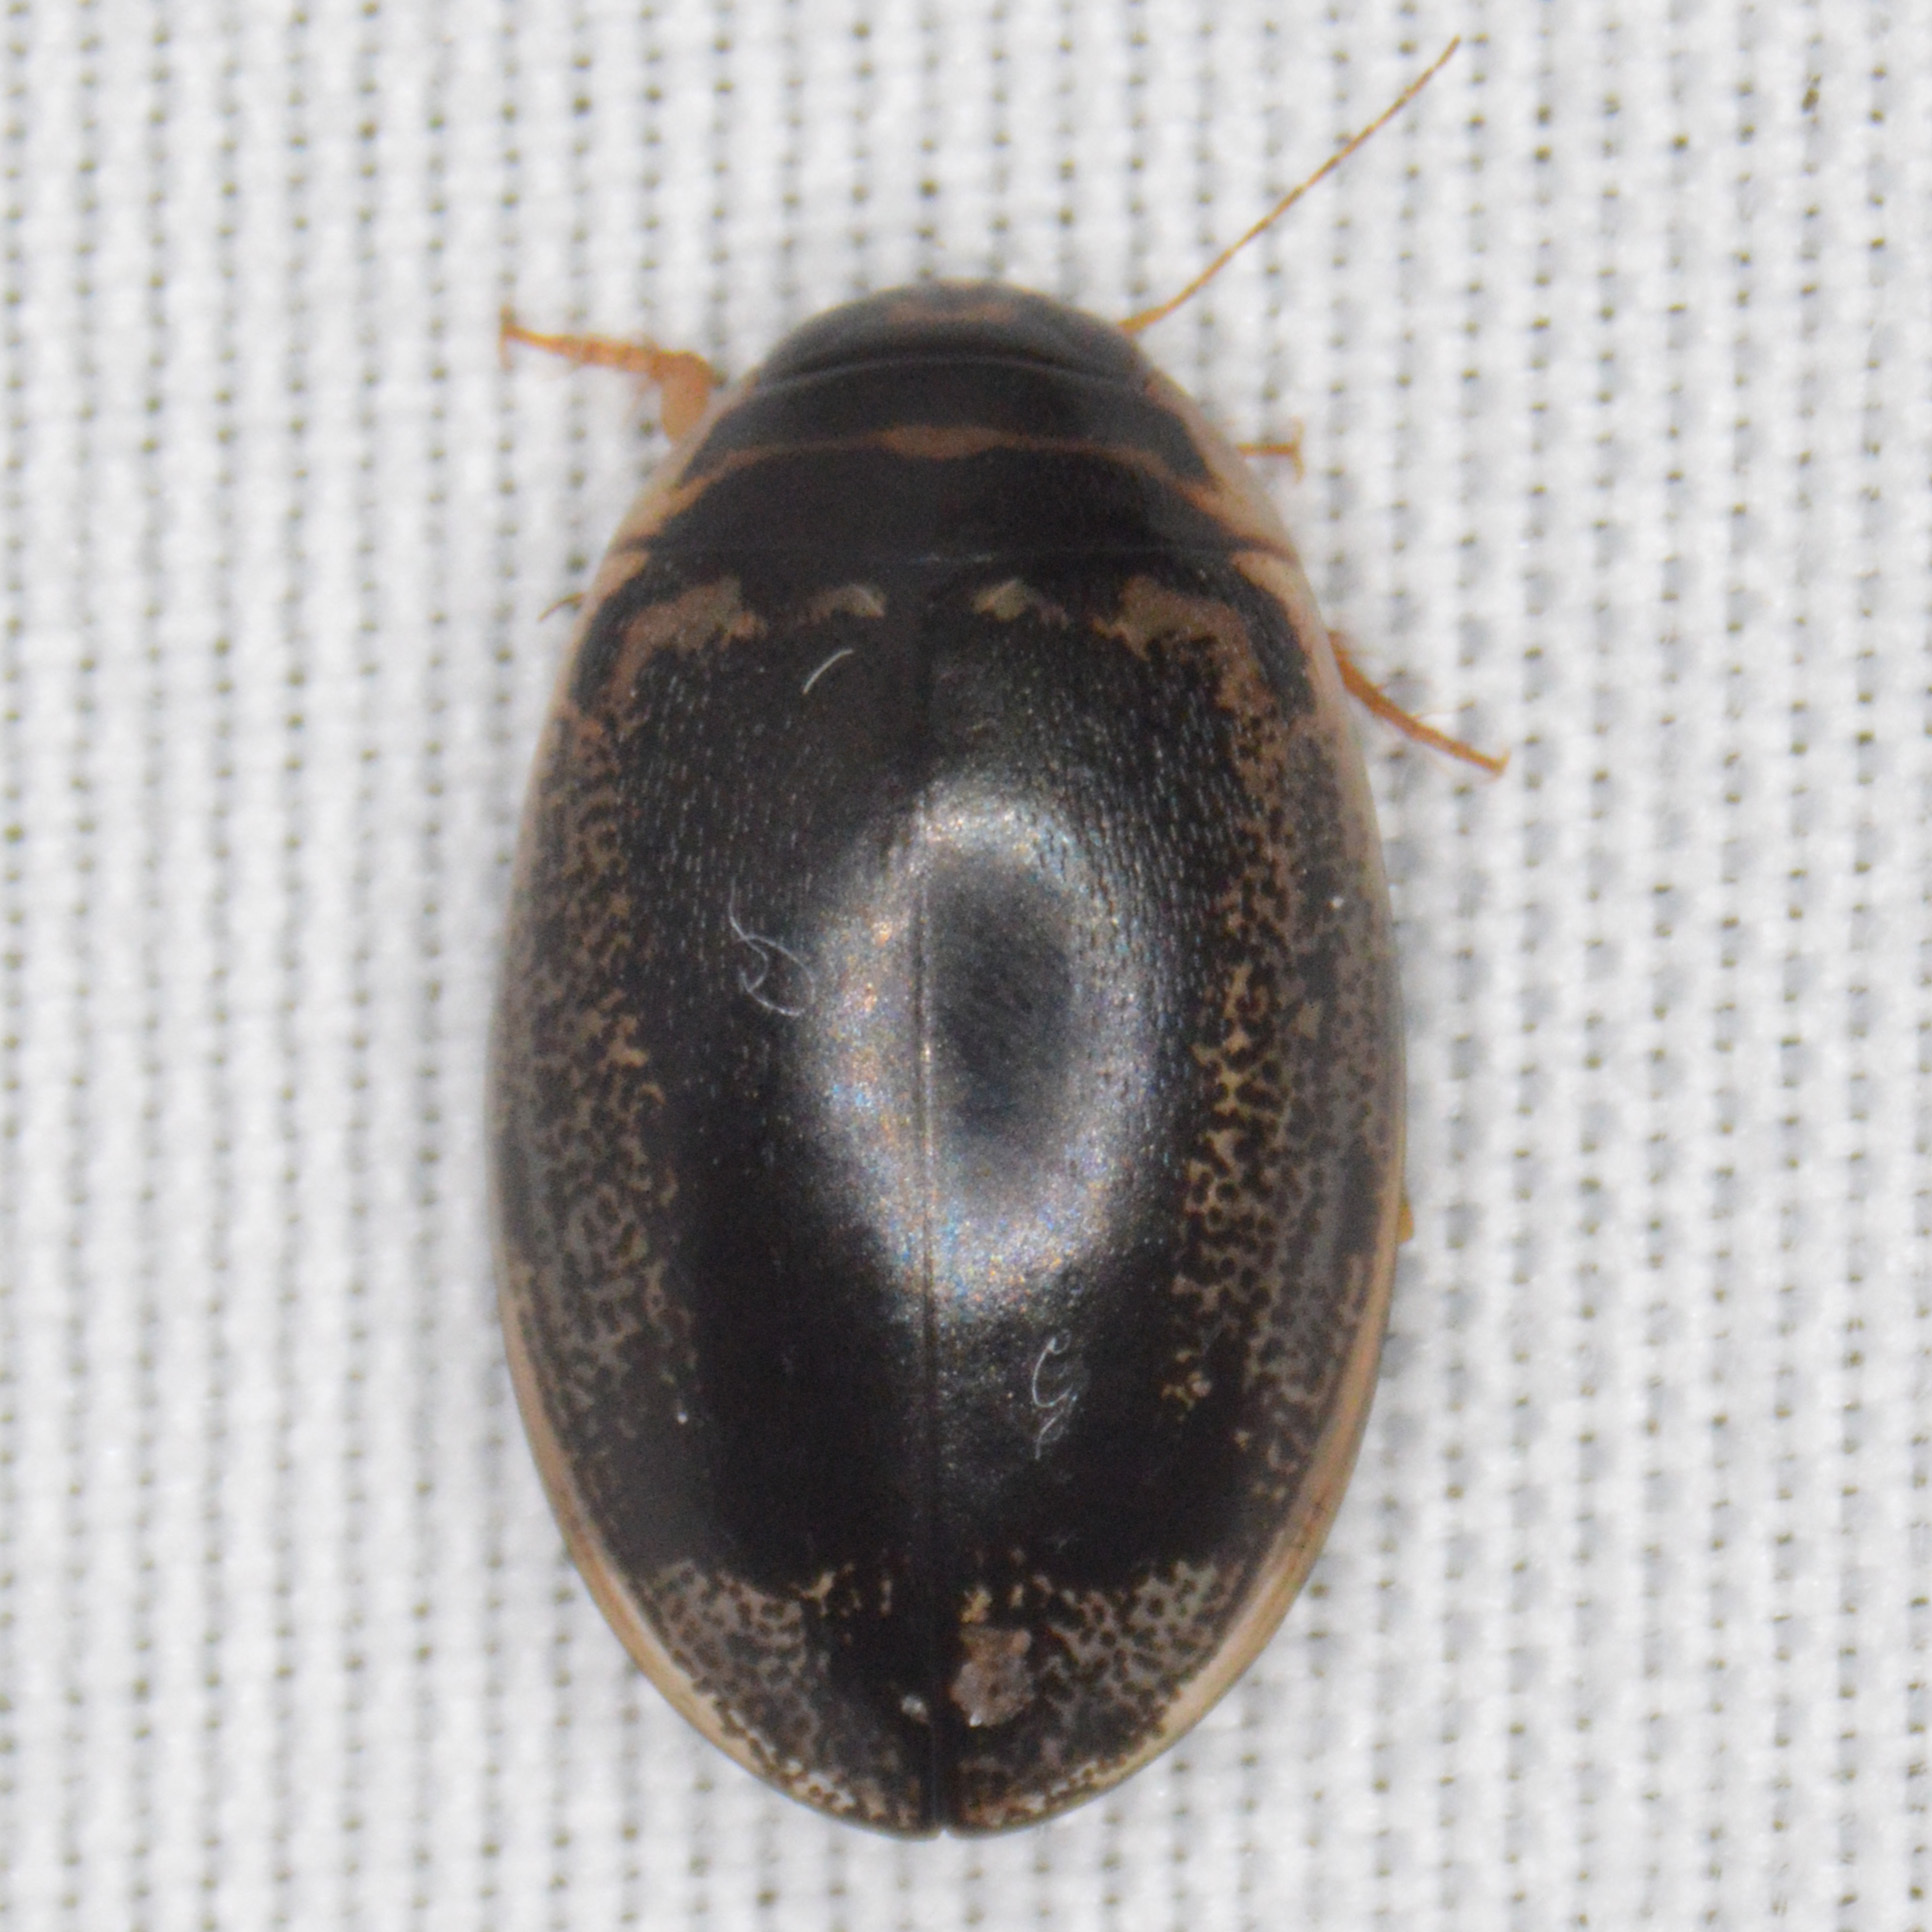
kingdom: Animalia
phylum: Arthropoda
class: Insecta
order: Coleoptera
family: Dytiscidae
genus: Thermonectus
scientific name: Thermonectus basillaris
